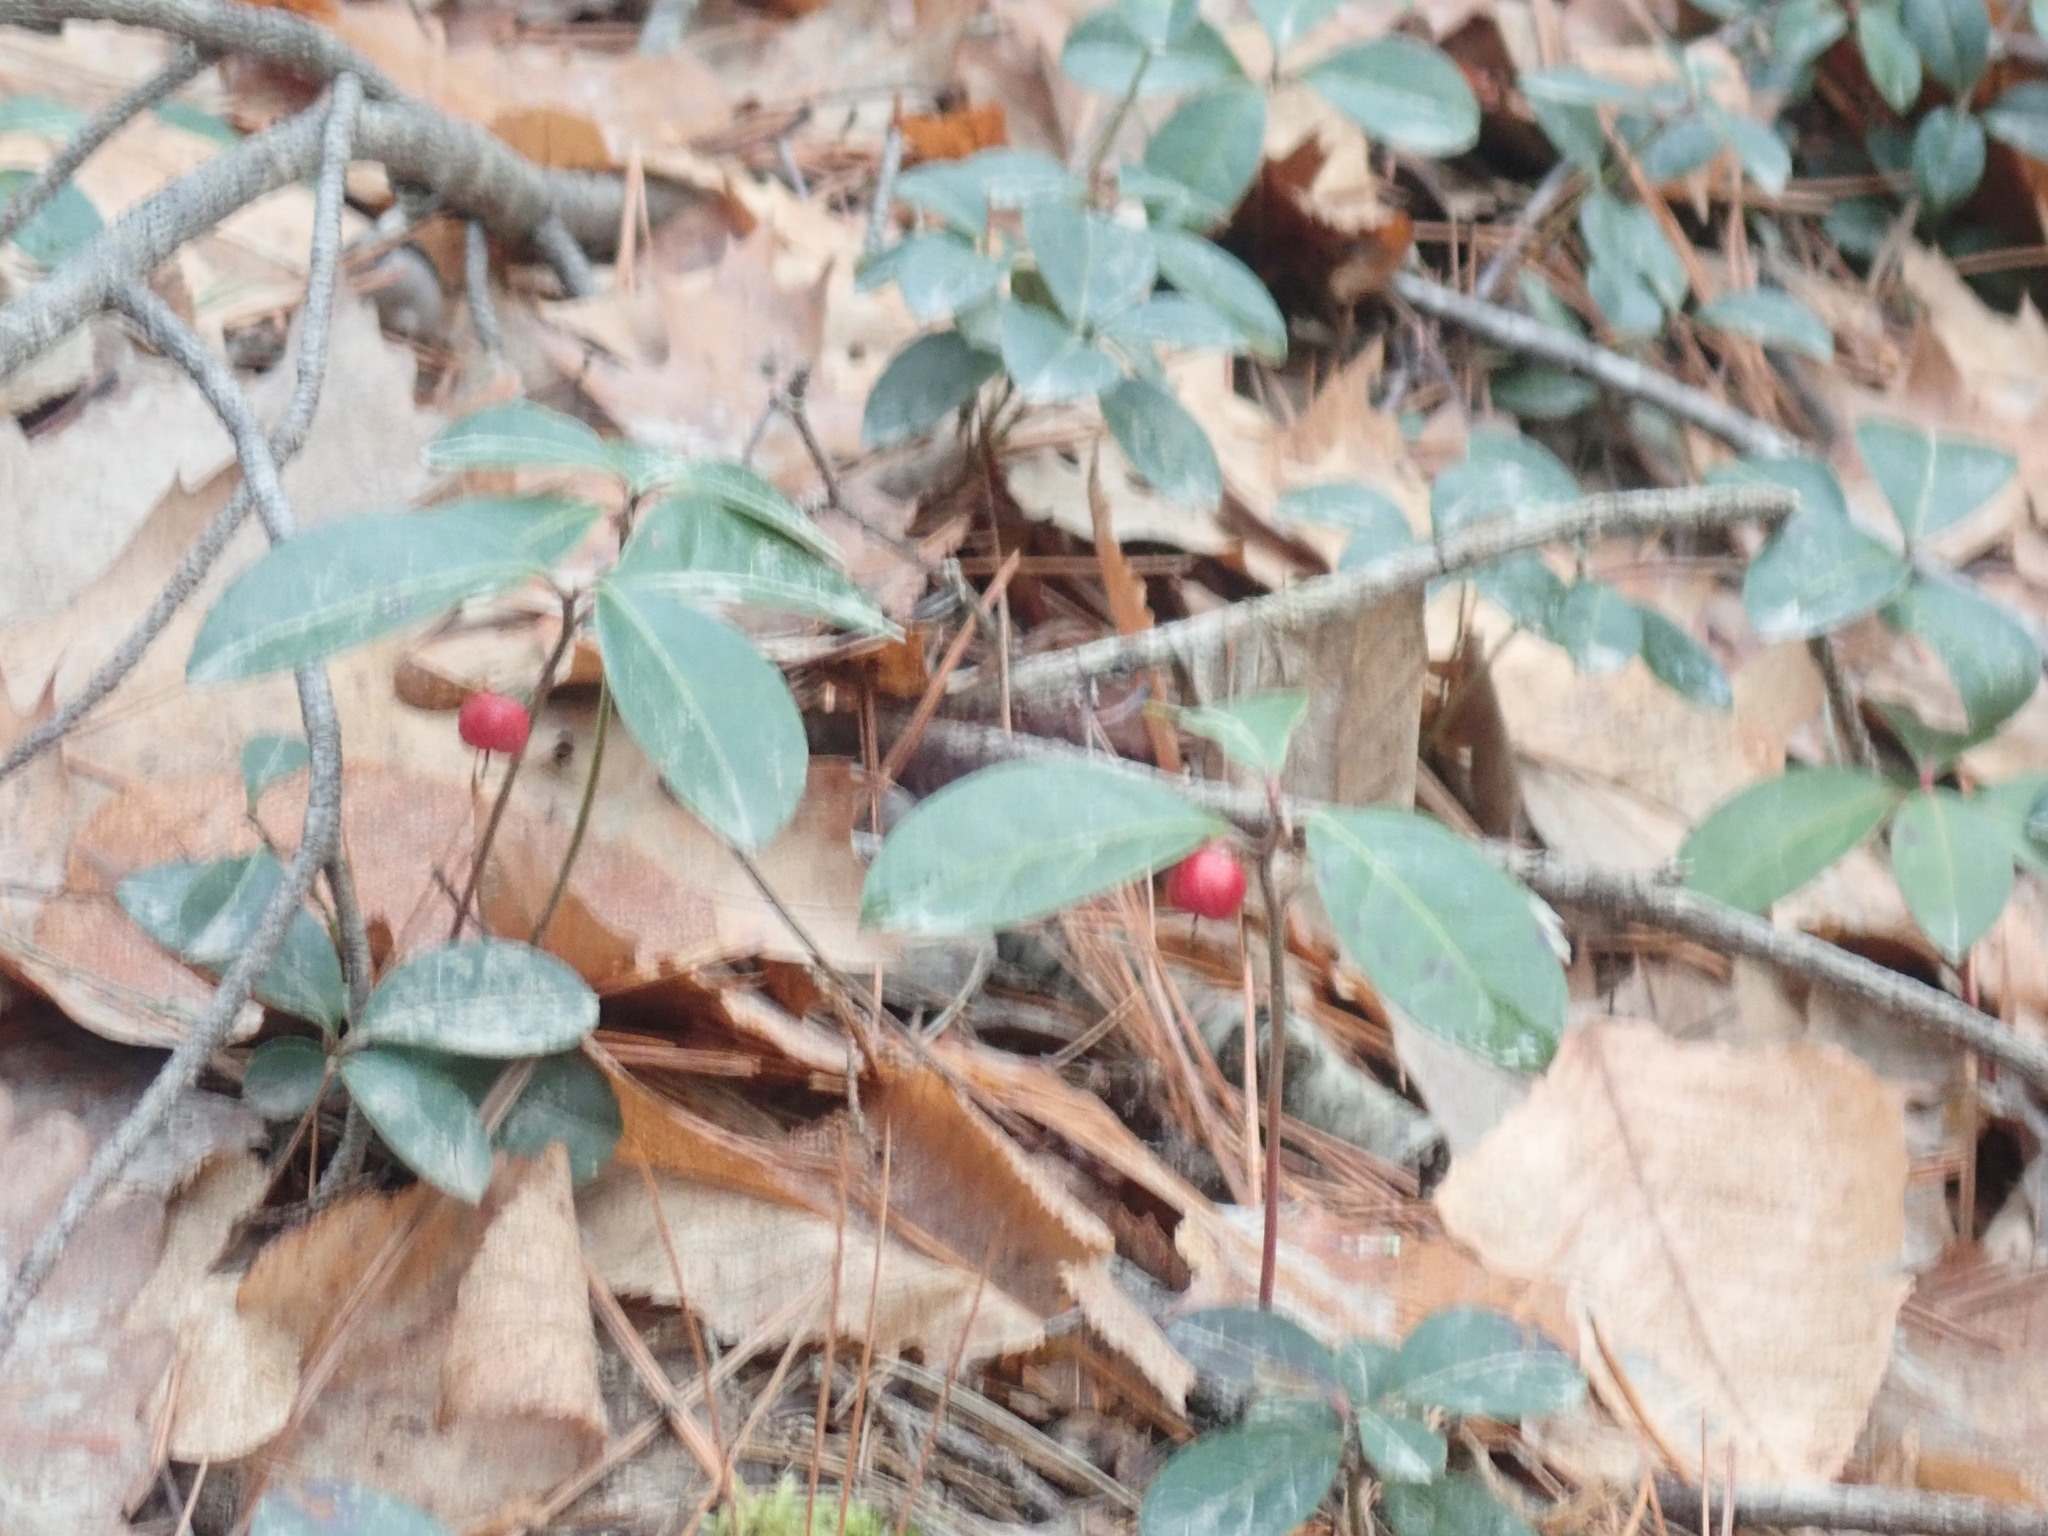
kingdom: Plantae
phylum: Tracheophyta
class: Magnoliopsida
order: Ericales
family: Ericaceae
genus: Gaultheria
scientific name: Gaultheria procumbens
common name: Checkerberry
